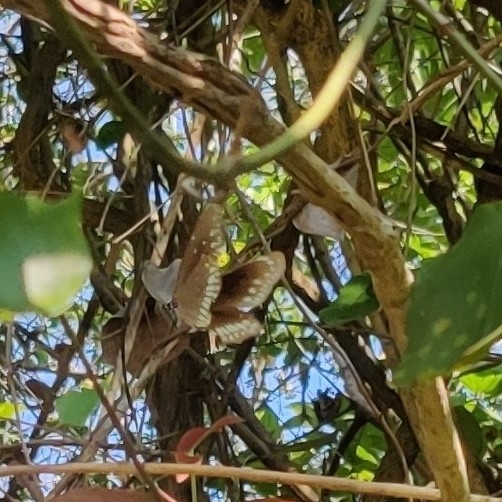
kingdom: Animalia
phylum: Arthropoda
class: Insecta
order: Lepidoptera
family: Nymphalidae
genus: Euploea
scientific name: Euploea core
